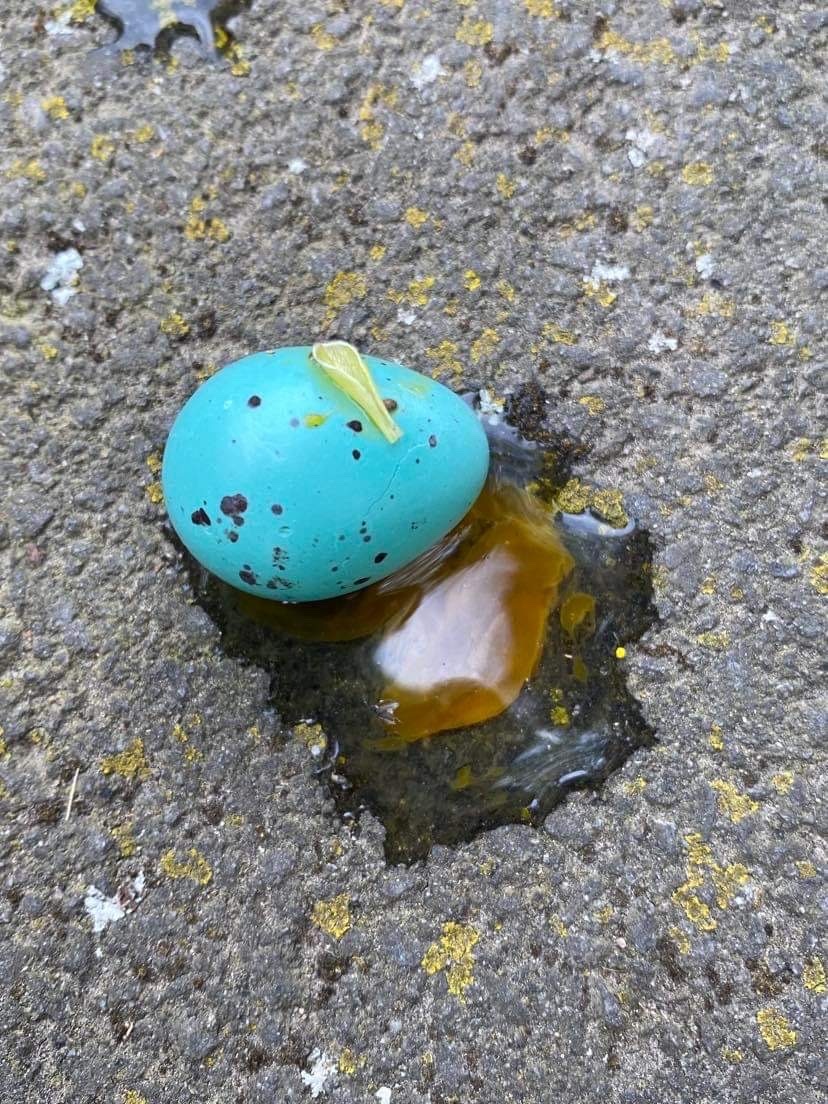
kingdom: Animalia
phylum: Chordata
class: Aves
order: Passeriformes
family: Turdidae
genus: Turdus
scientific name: Turdus philomelos
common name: Song thrush
